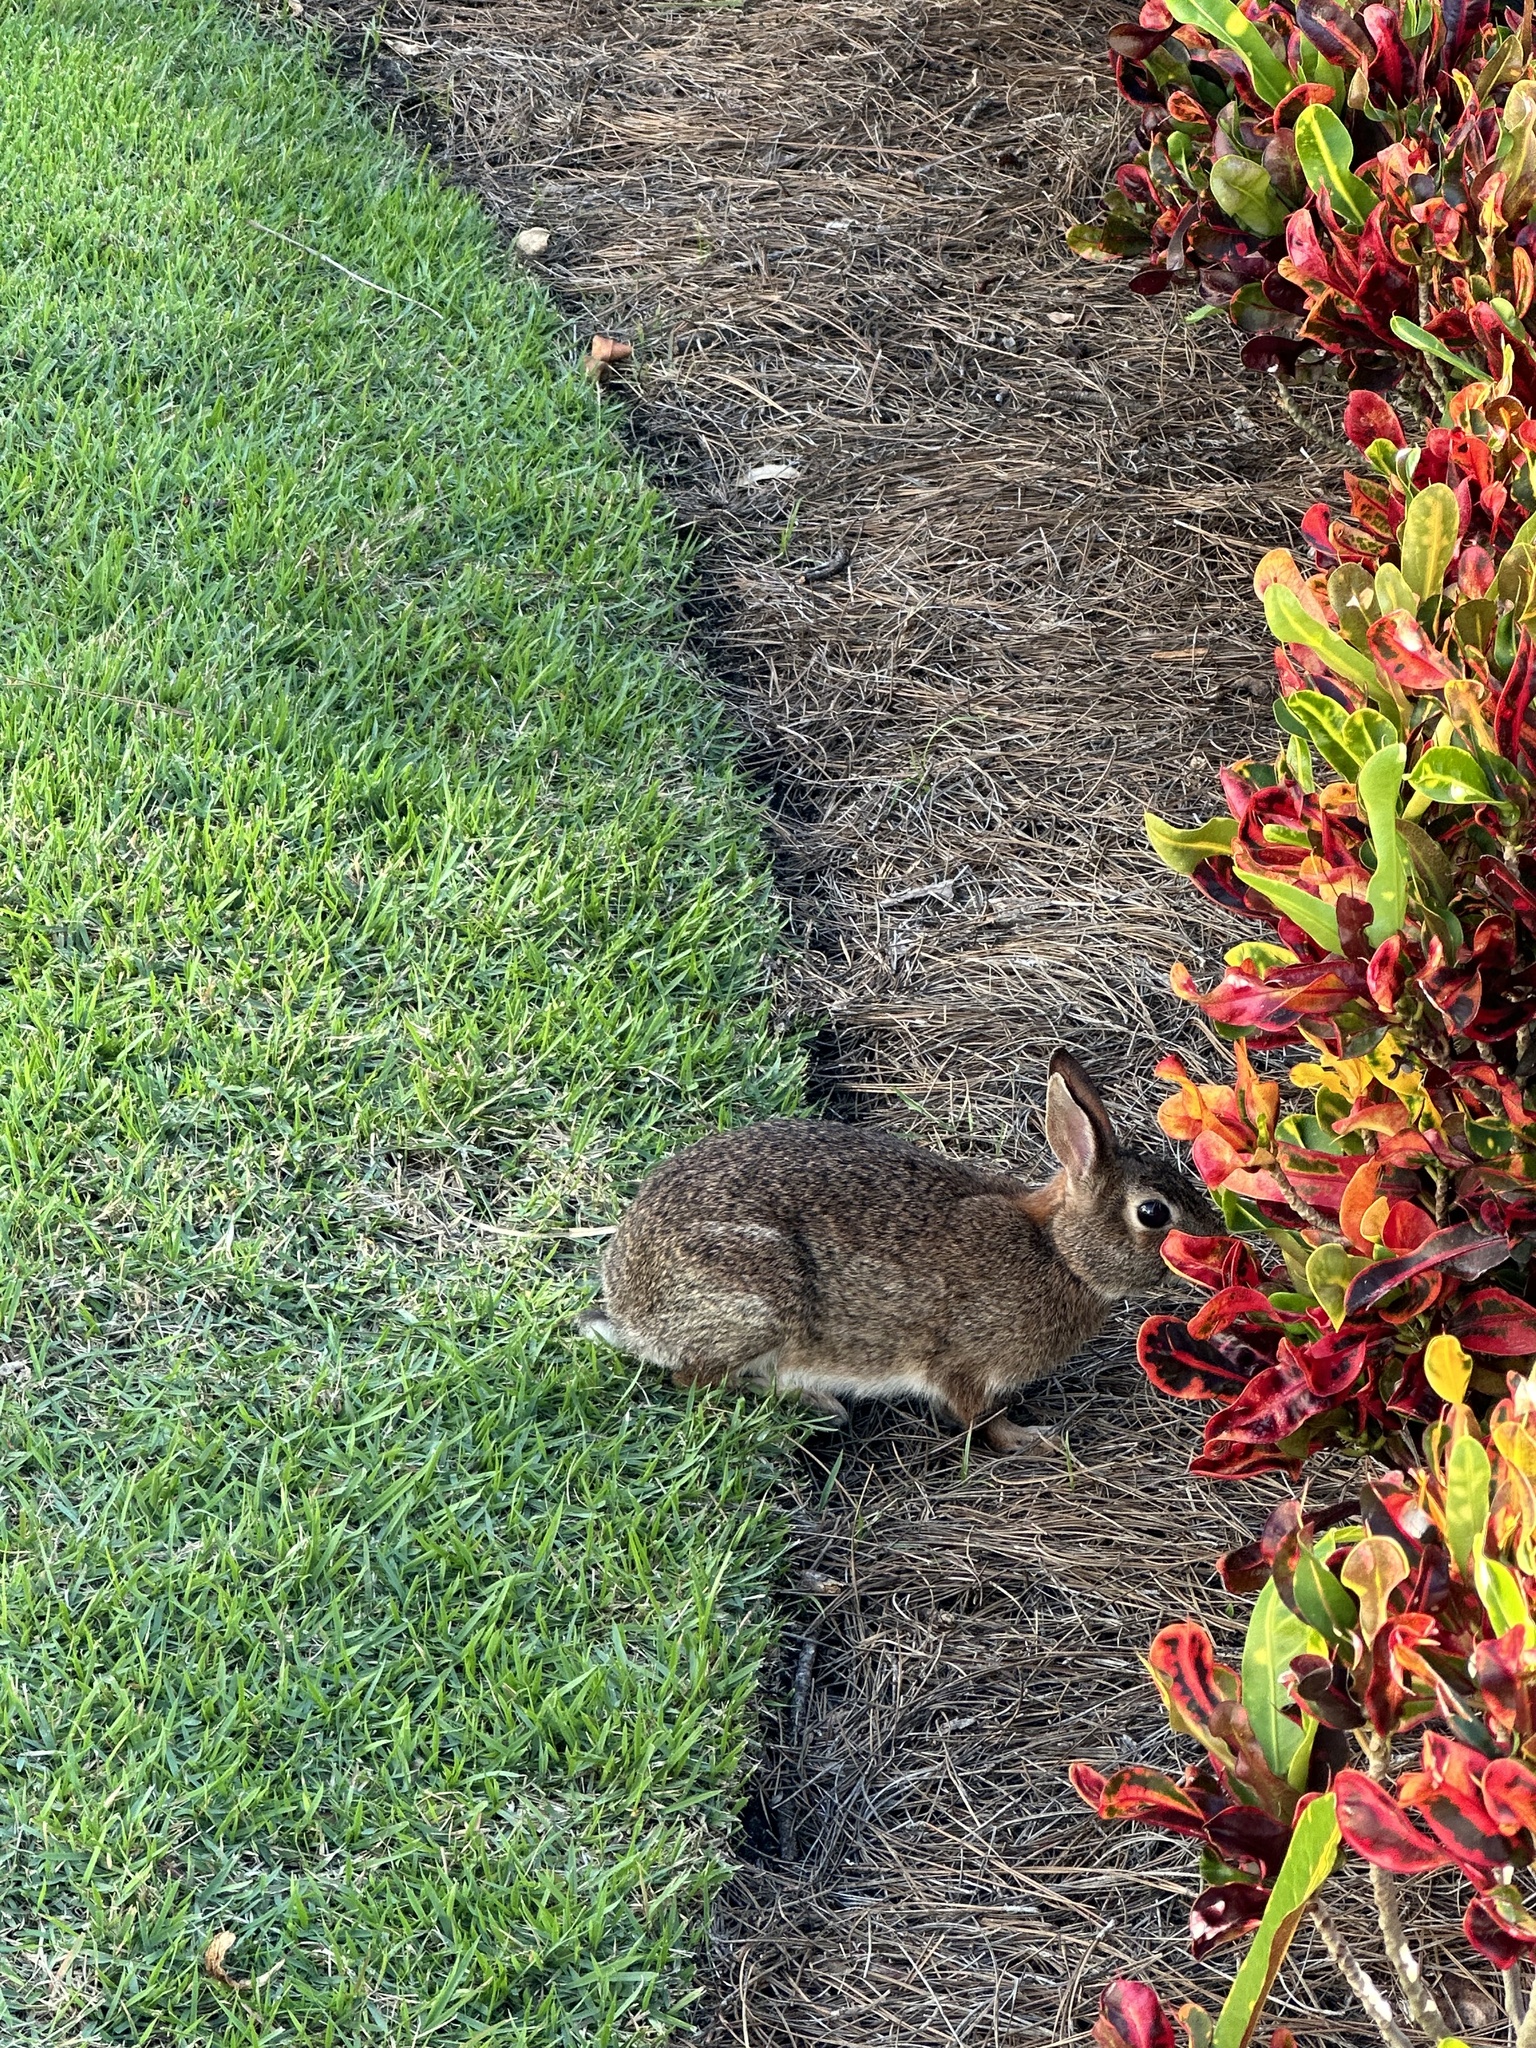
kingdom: Animalia
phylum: Chordata
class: Mammalia
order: Lagomorpha
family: Leporidae
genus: Sylvilagus
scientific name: Sylvilagus floridanus
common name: Eastern cottontail
